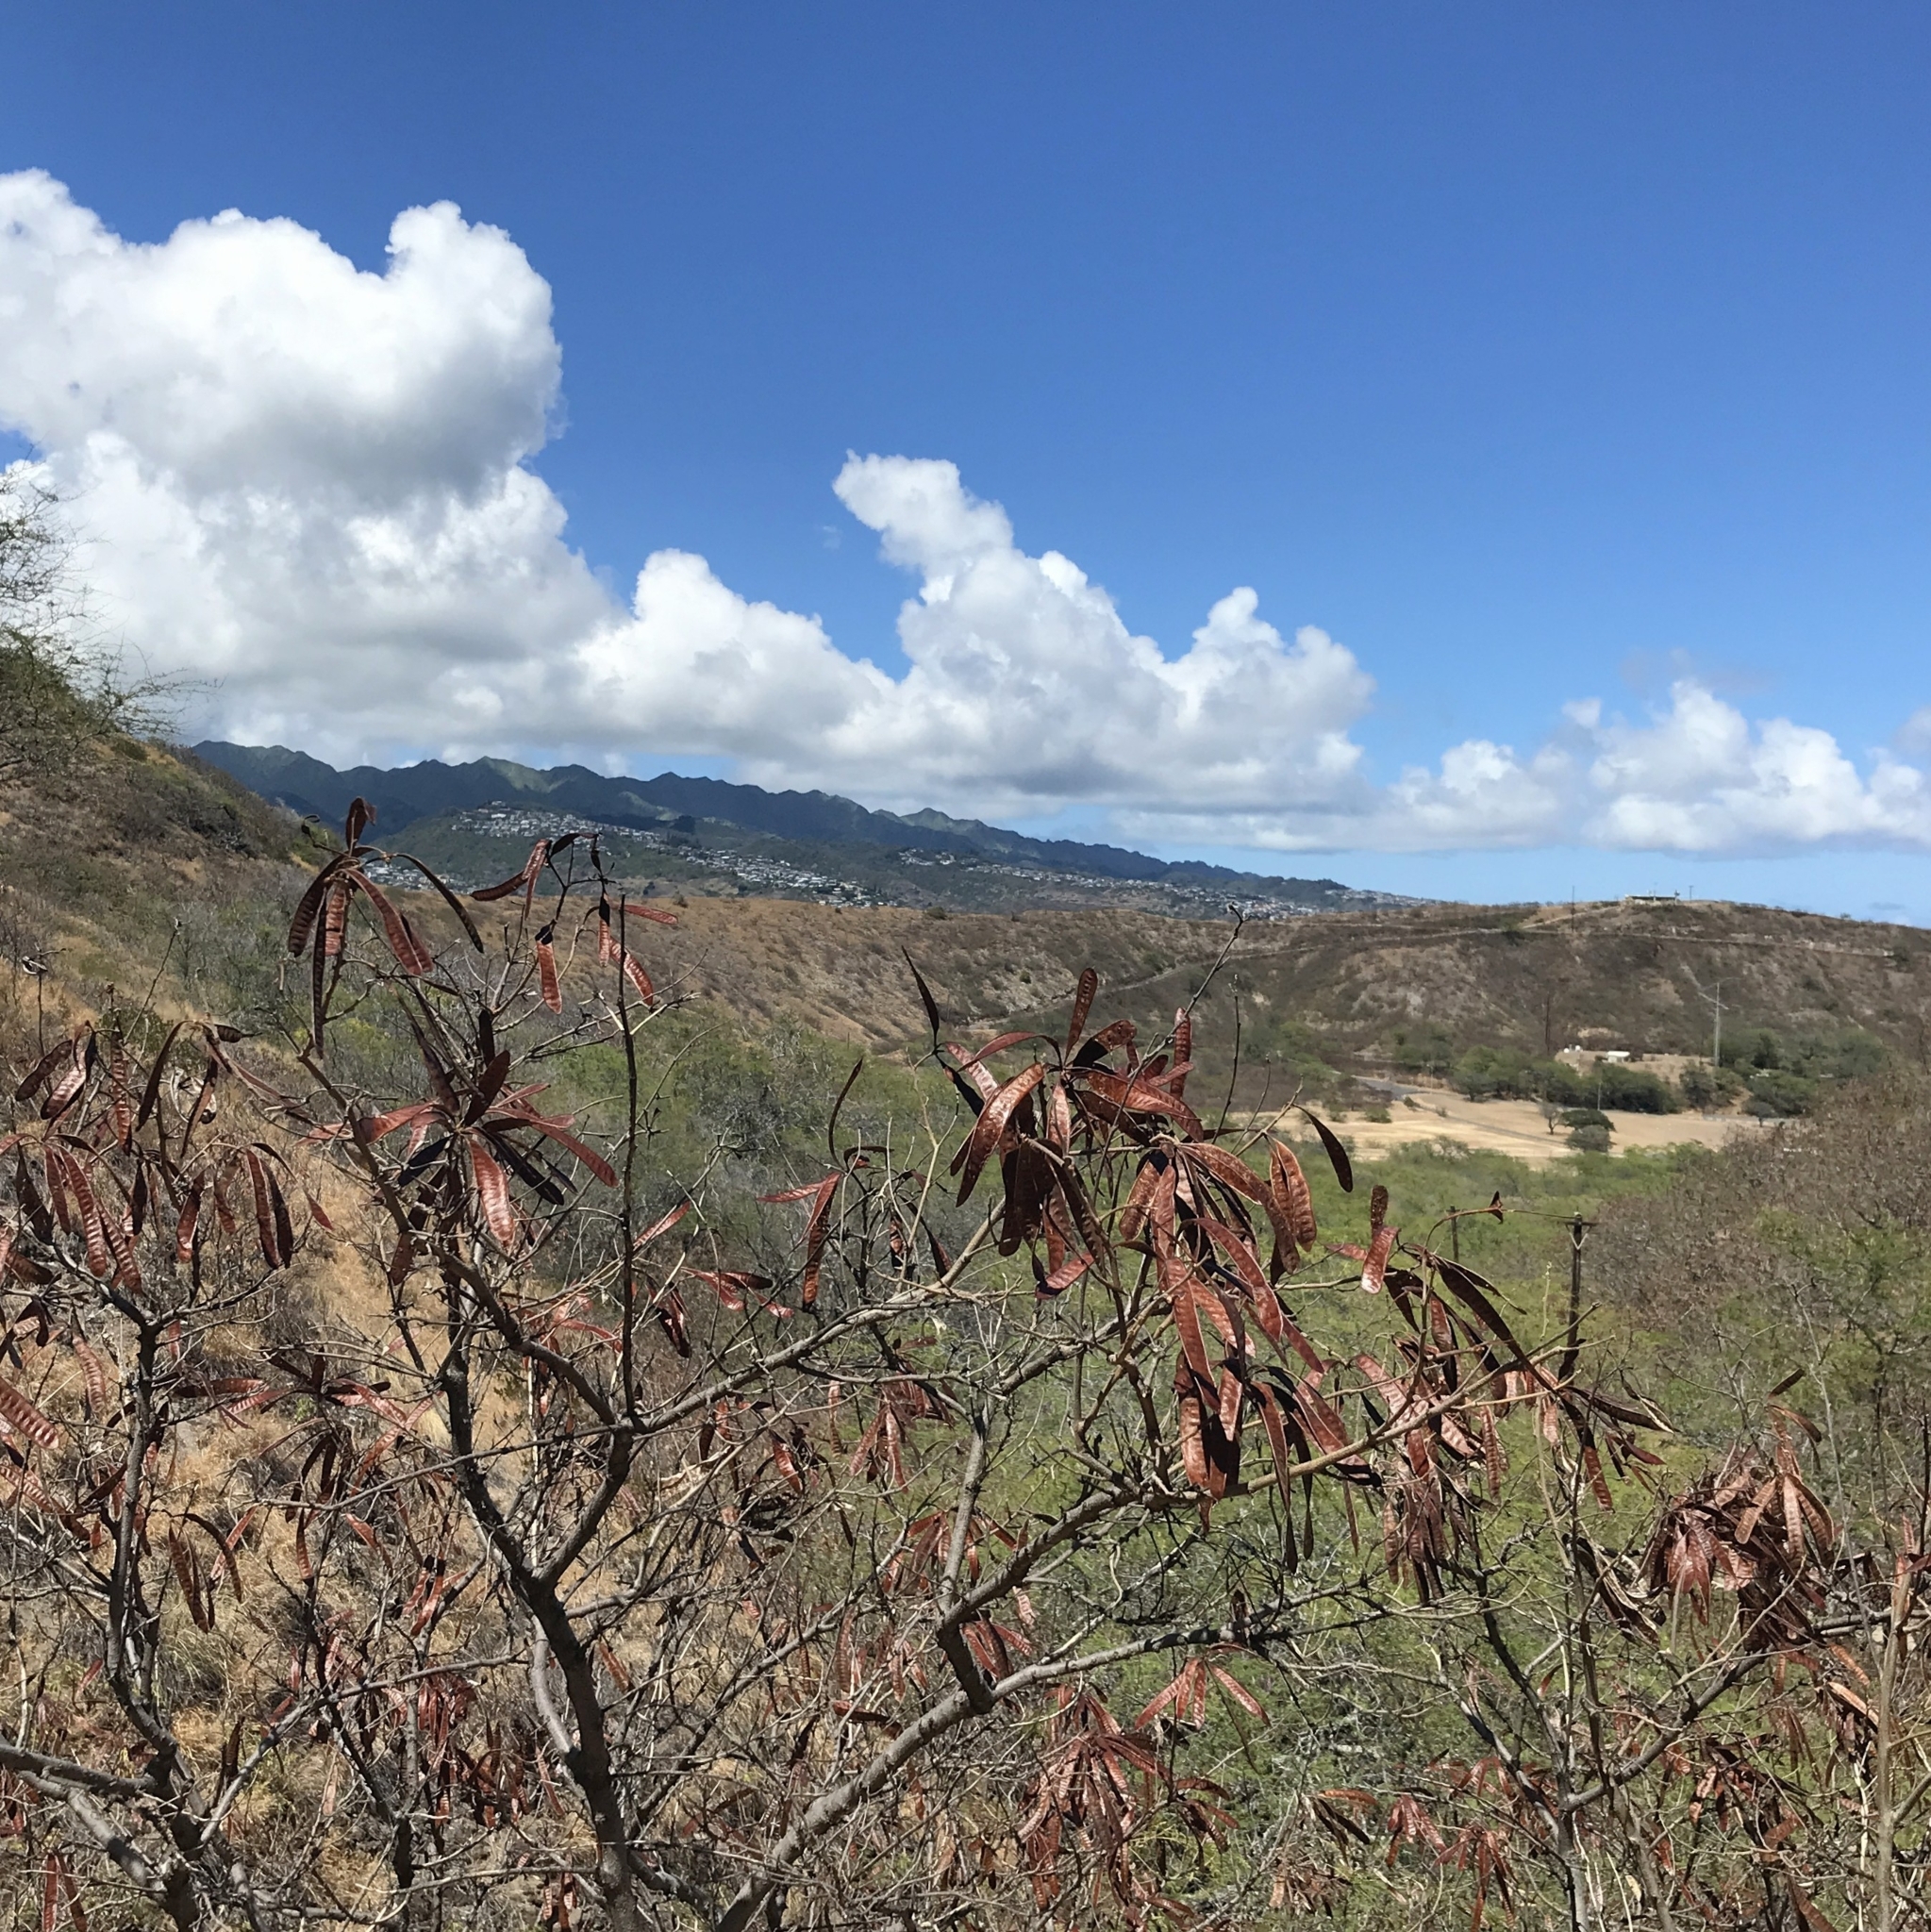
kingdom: Plantae
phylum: Tracheophyta
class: Magnoliopsida
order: Fabales
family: Fabaceae
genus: Leucaena
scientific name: Leucaena leucocephala
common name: White leadtree
